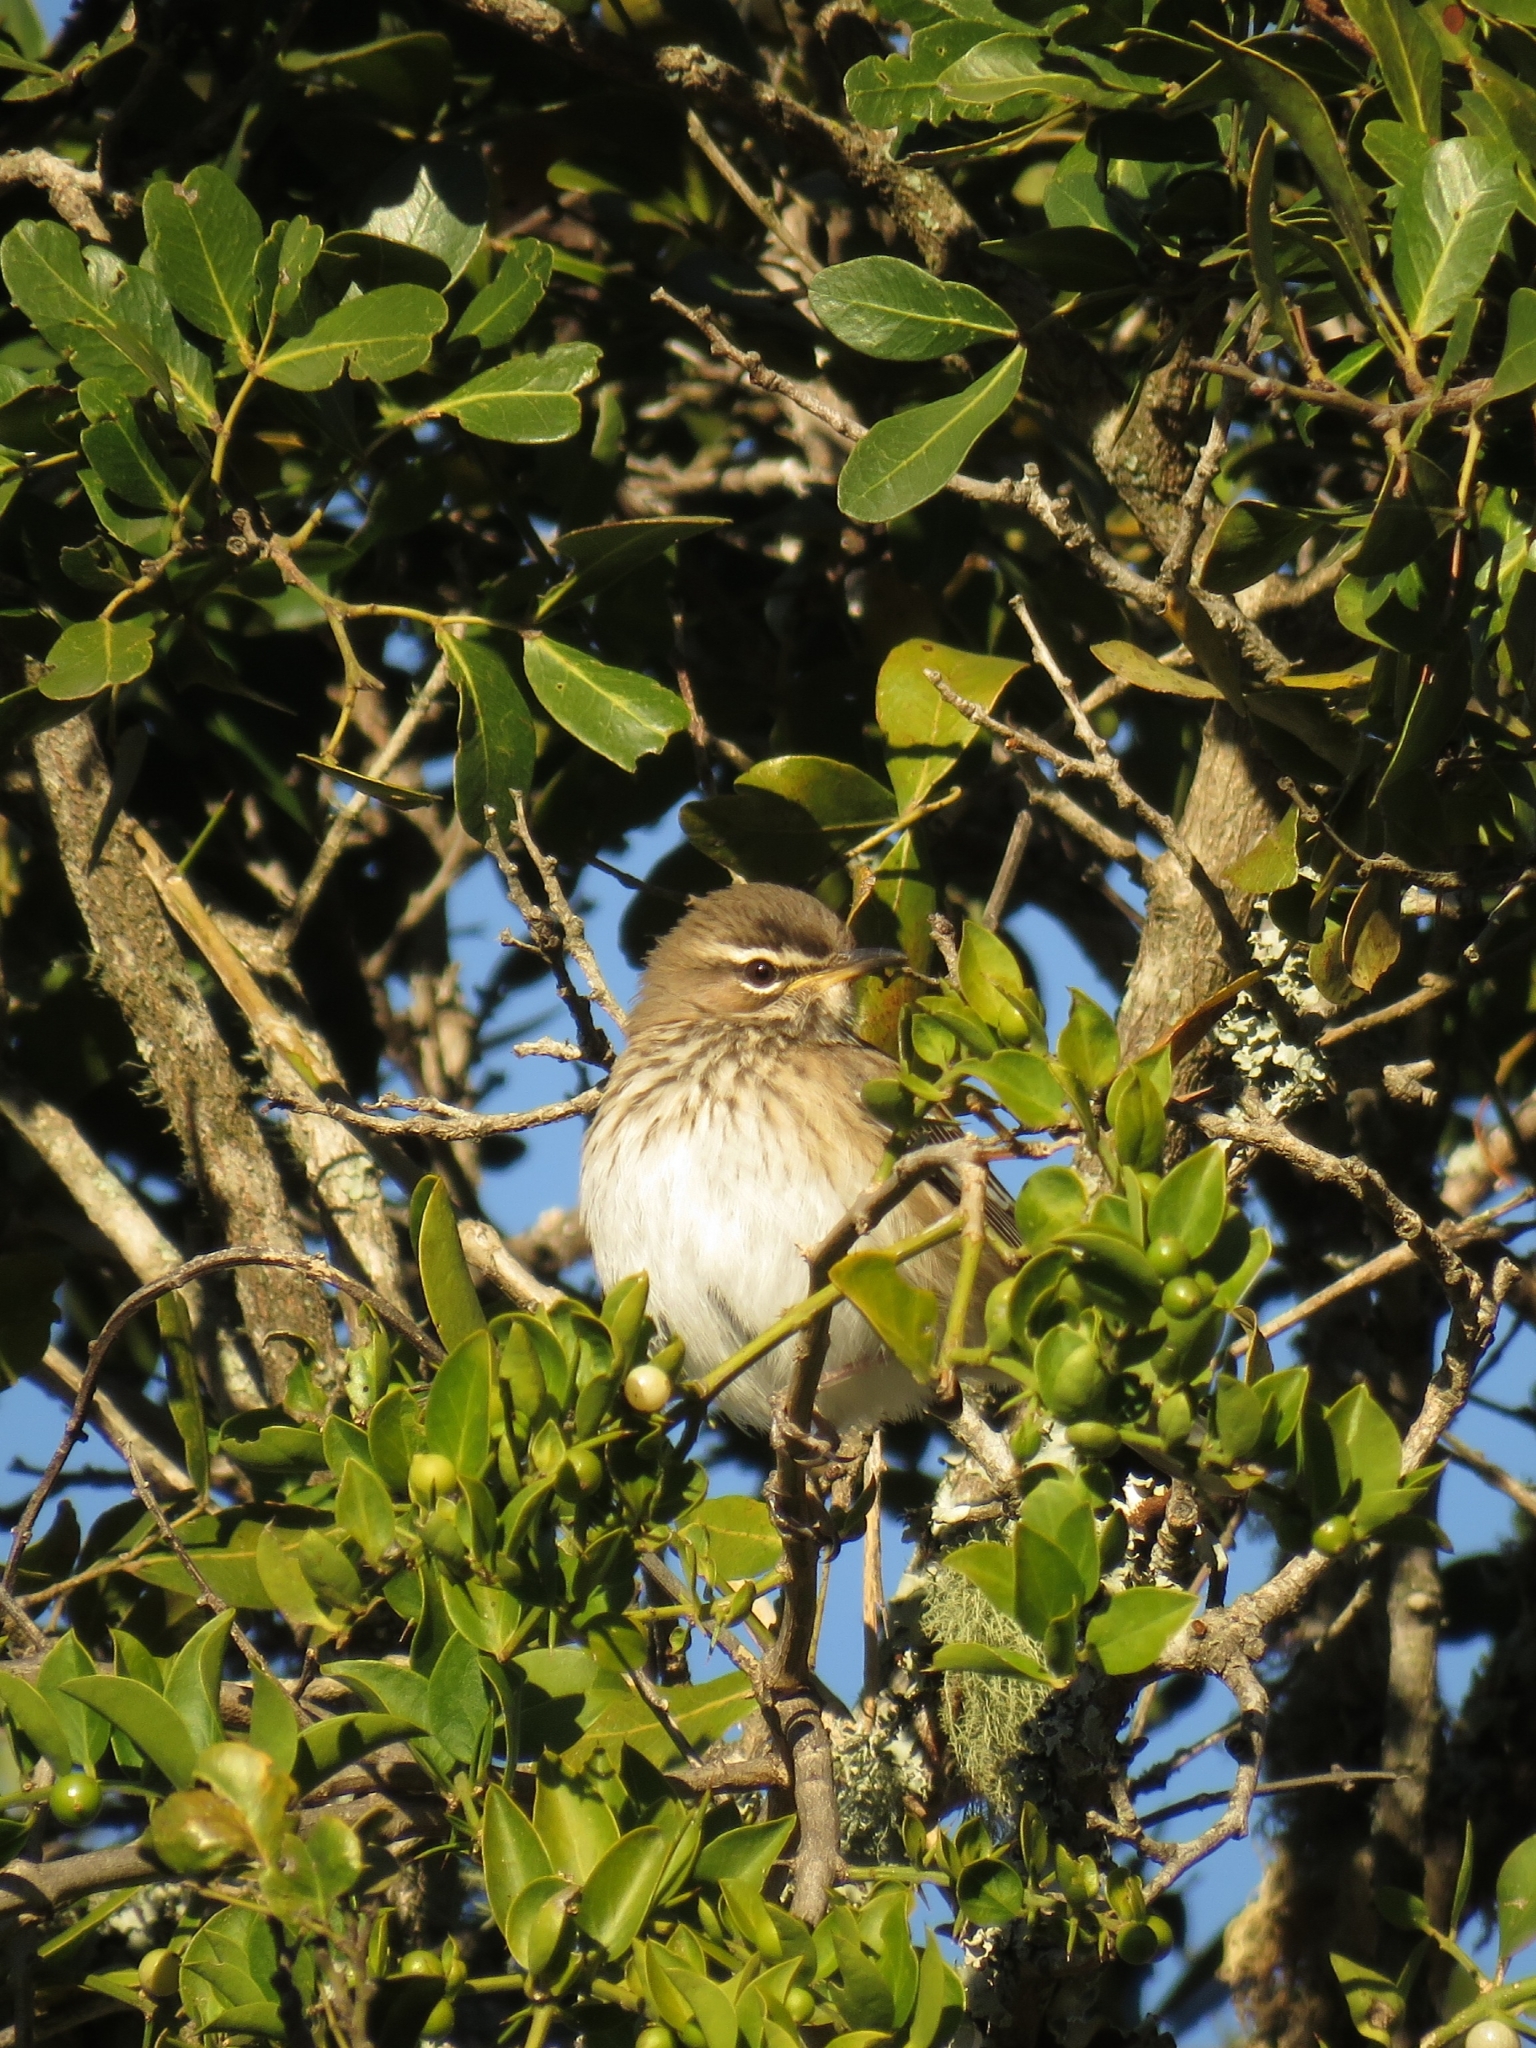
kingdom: Animalia
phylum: Chordata
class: Aves
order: Passeriformes
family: Muscicapidae
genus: Erythropygia
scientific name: Erythropygia leucophrys
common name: White-browed scrub robin
